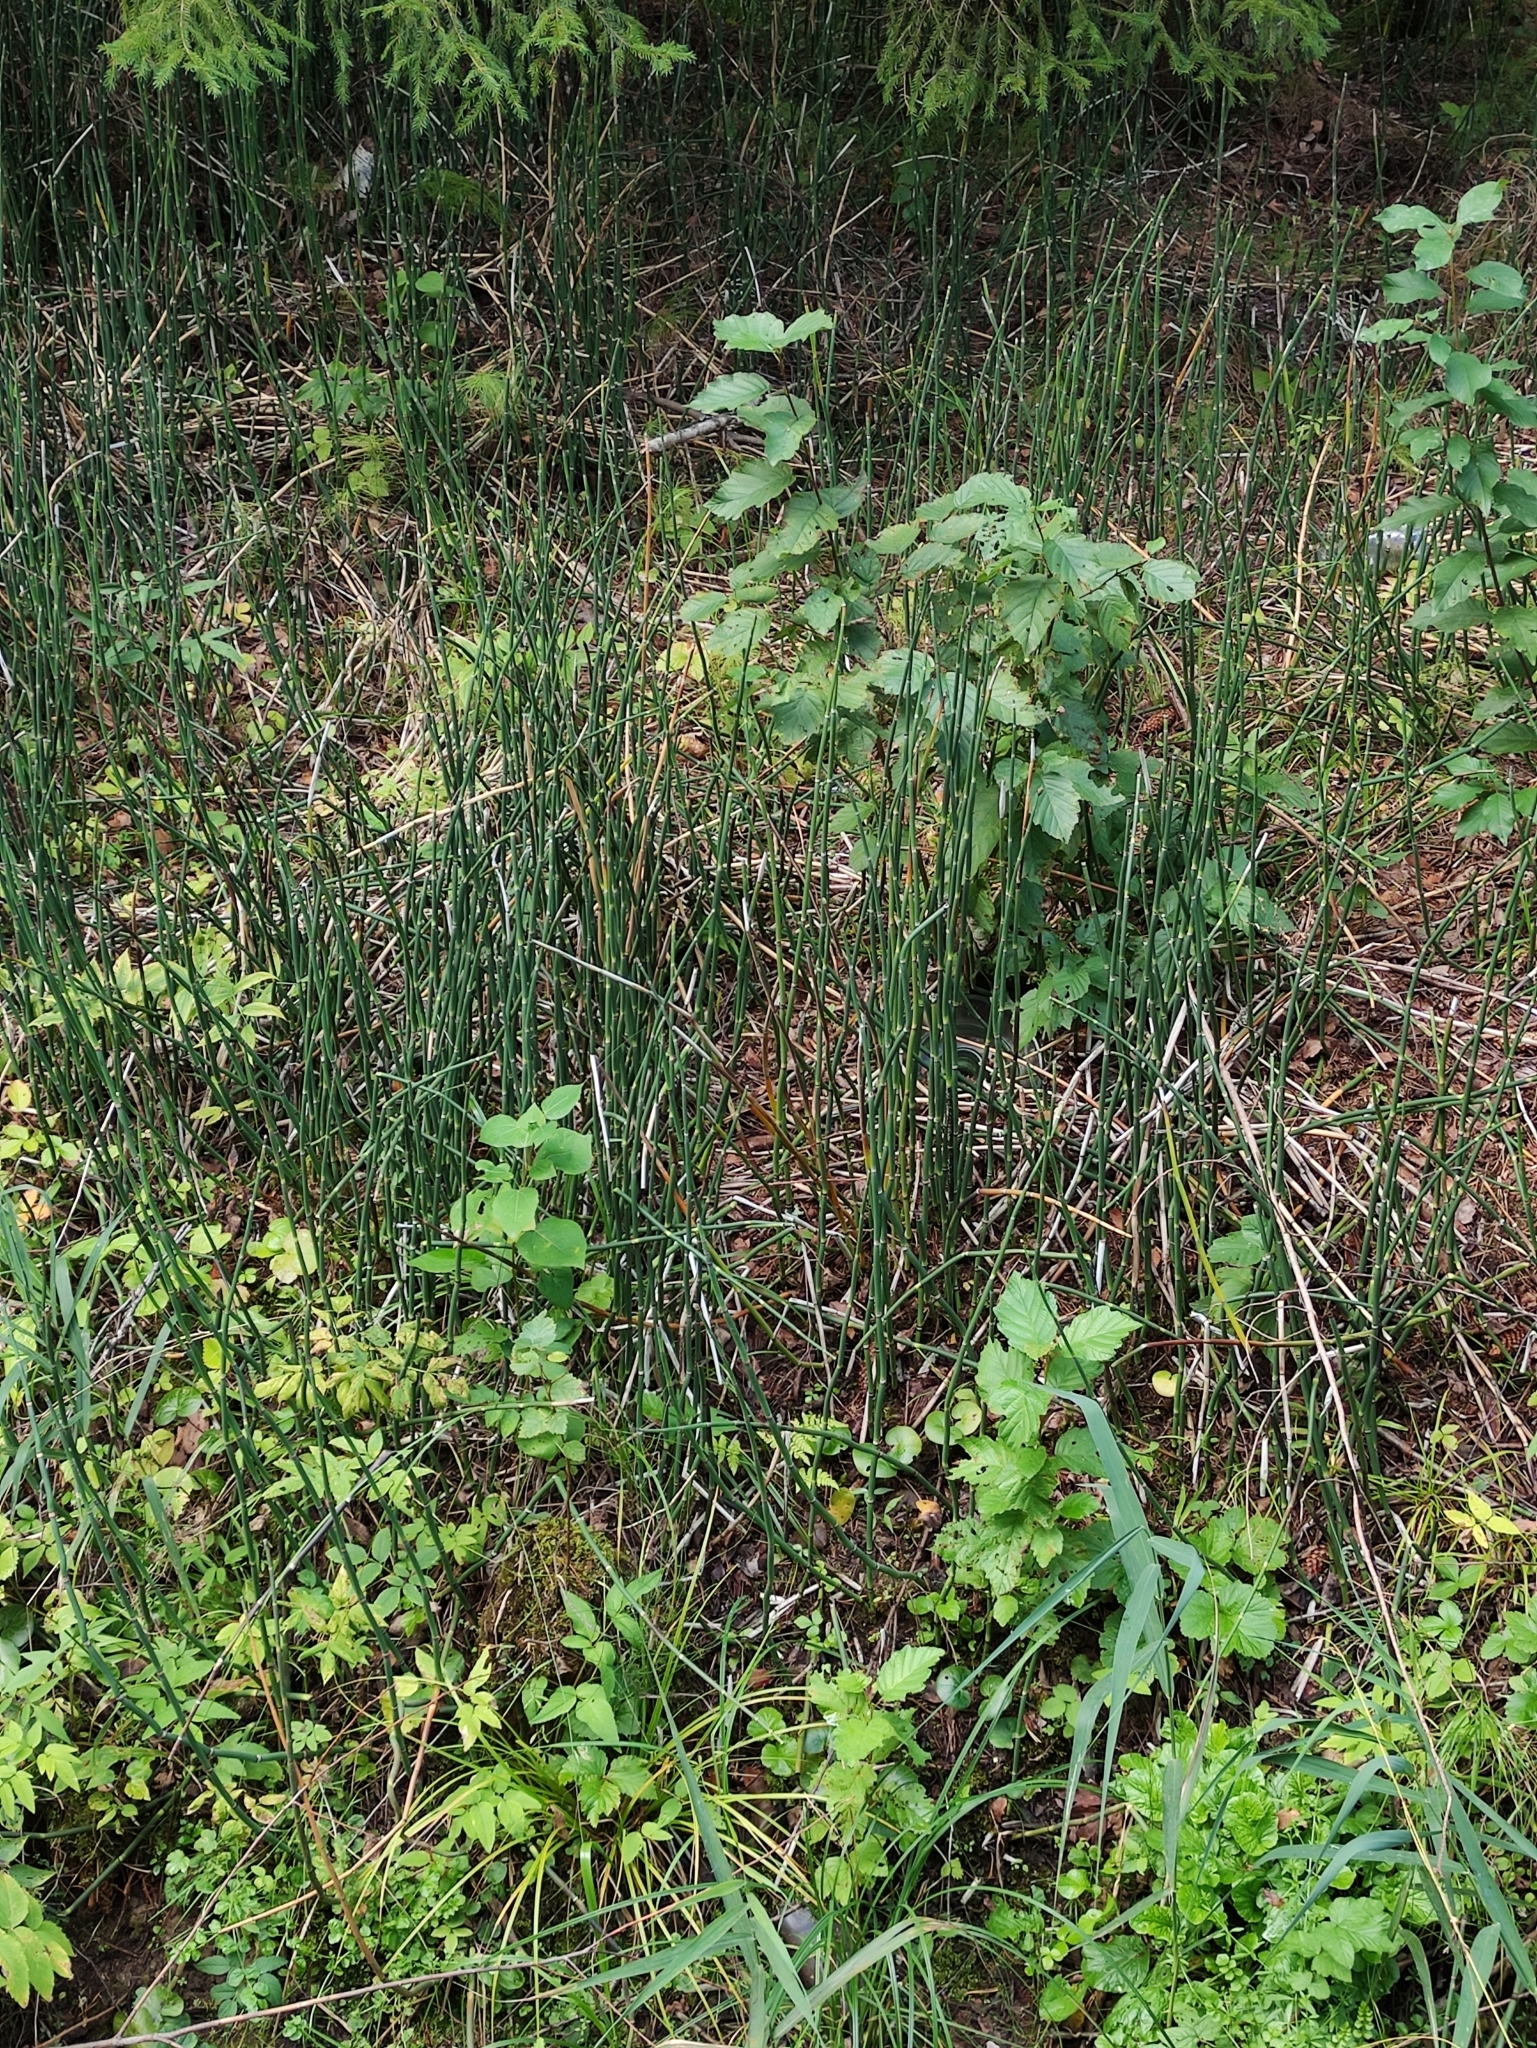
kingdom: Plantae
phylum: Tracheophyta
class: Polypodiopsida
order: Equisetales
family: Equisetaceae
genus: Equisetum
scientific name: Equisetum hyemale
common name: Rough horsetail
